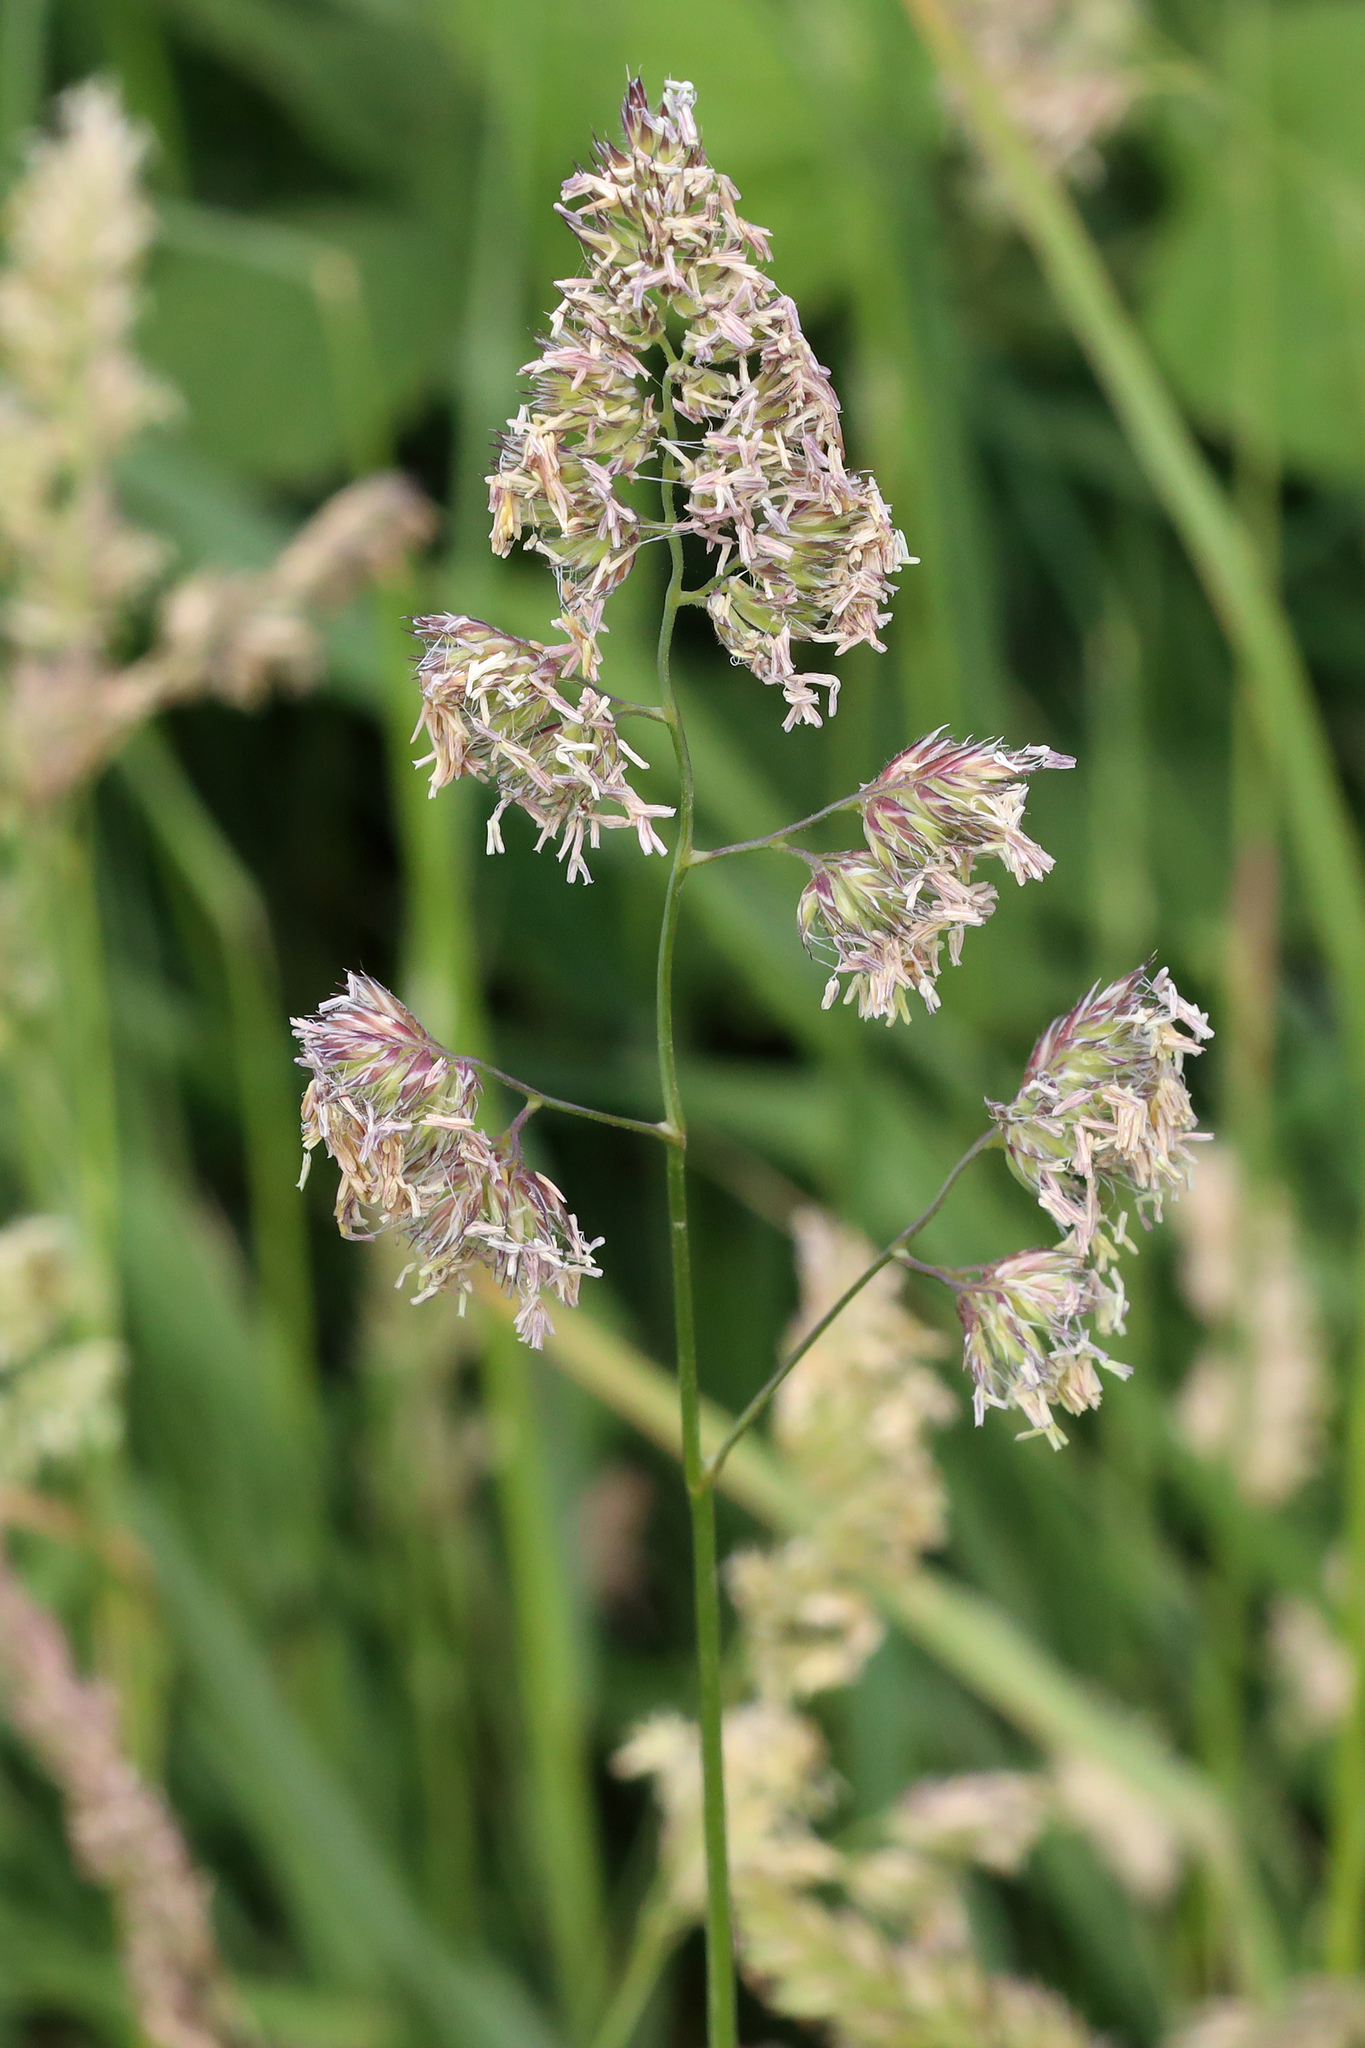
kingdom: Plantae
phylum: Tracheophyta
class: Liliopsida
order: Poales
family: Poaceae
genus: Dactylis
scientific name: Dactylis glomerata
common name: Orchardgrass
